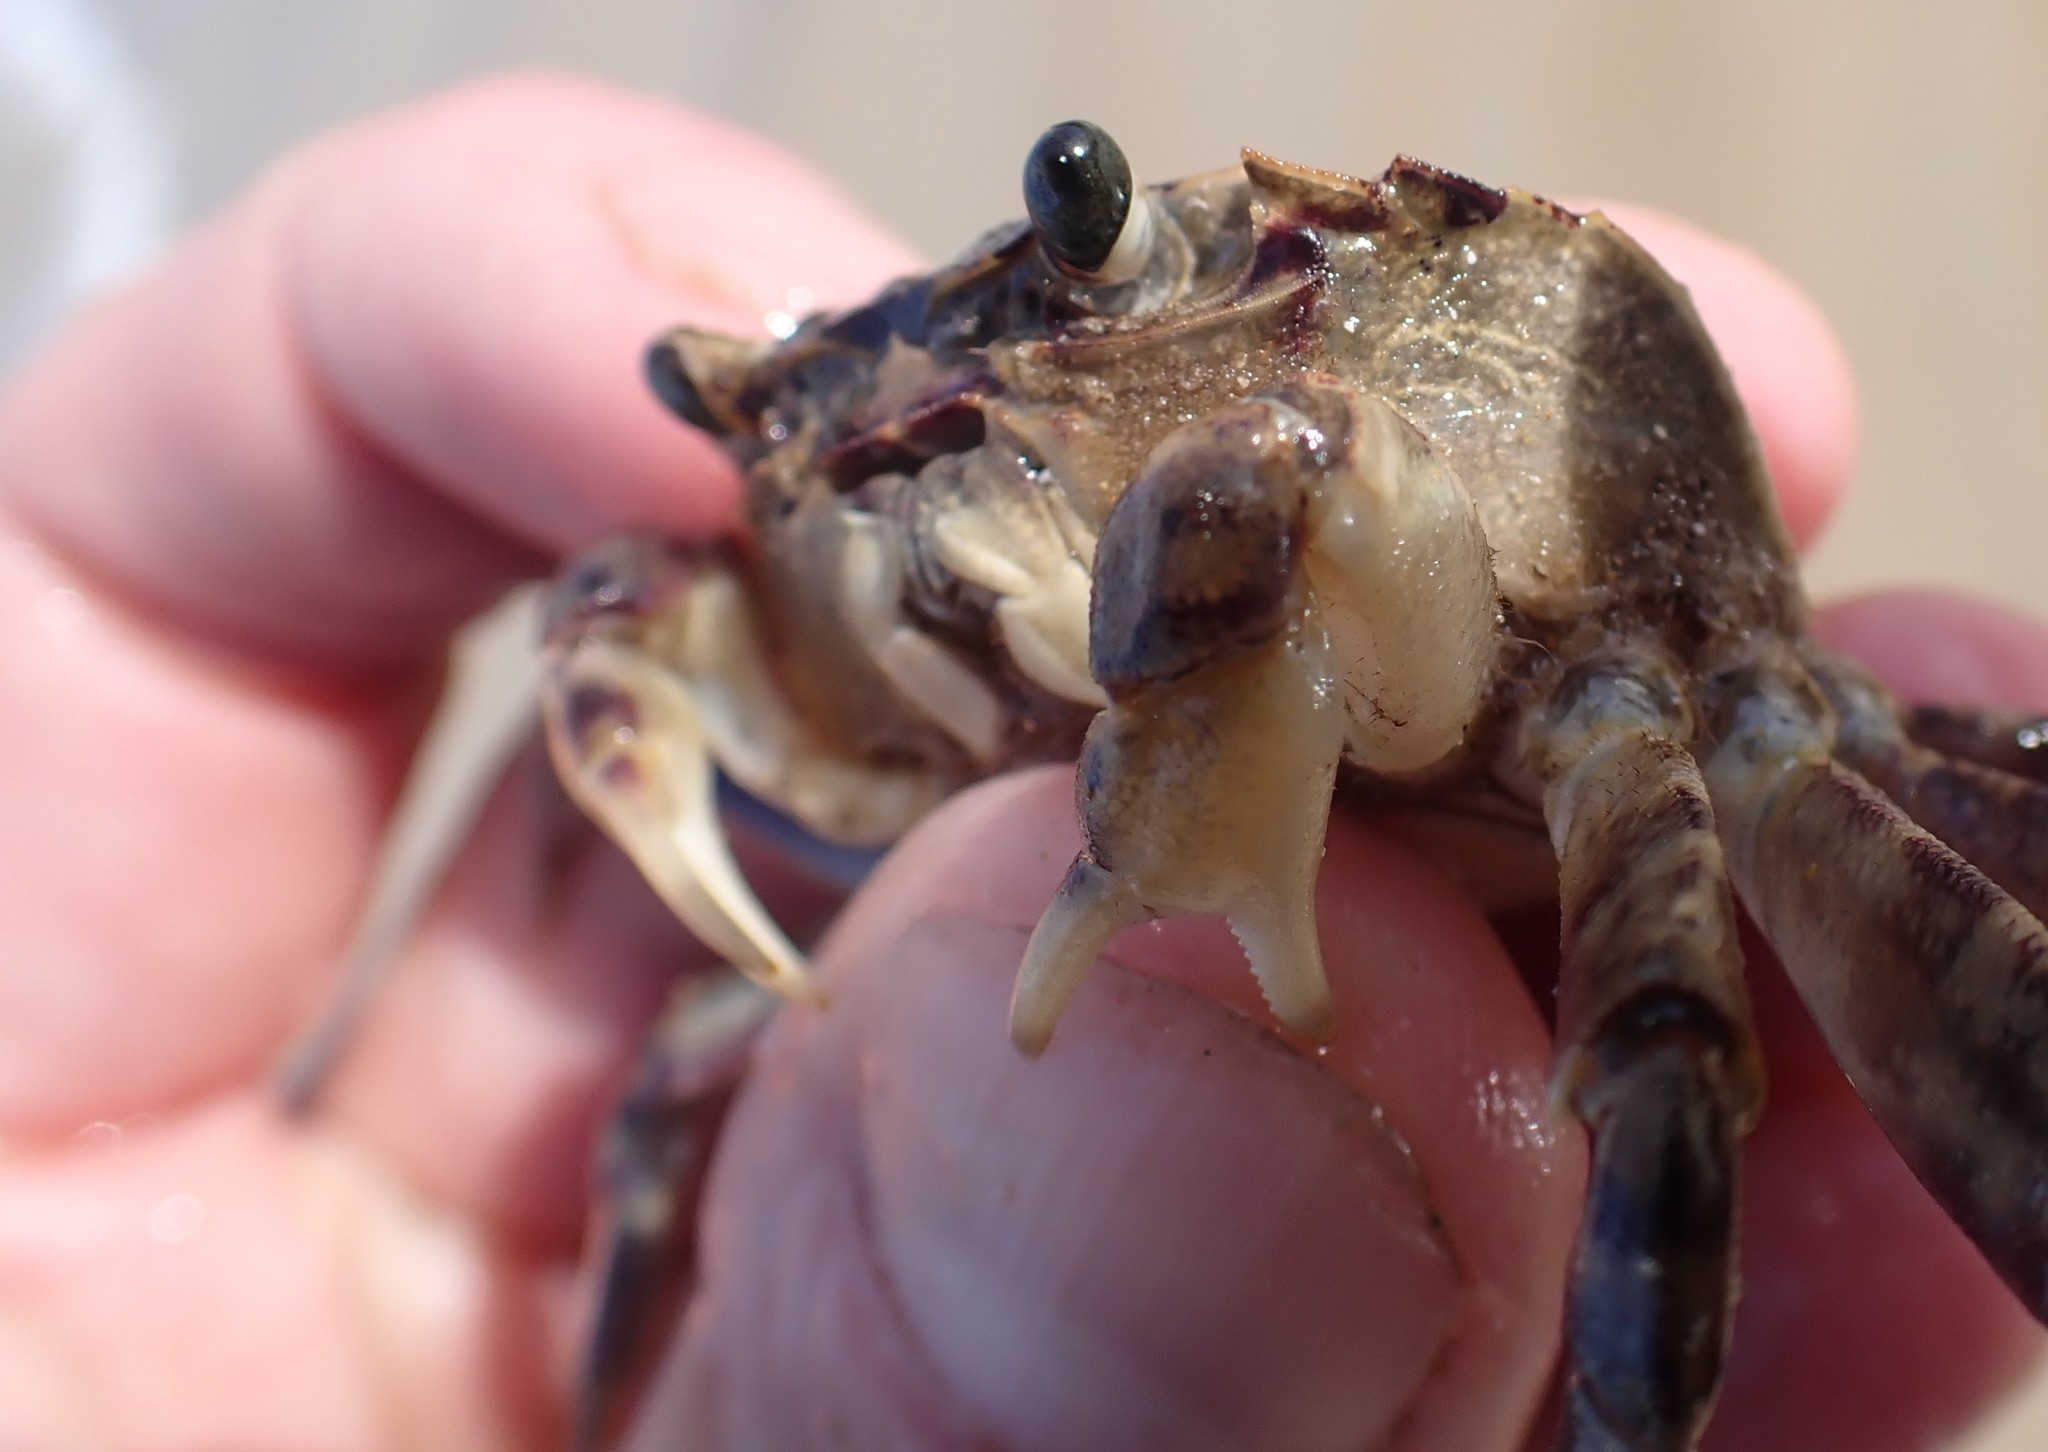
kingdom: Animalia
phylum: Arthropoda
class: Malacostraca
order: Decapoda
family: Leptograpsodidae
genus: Leptograpsodes
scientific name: Leptograpsodes octodentatus
